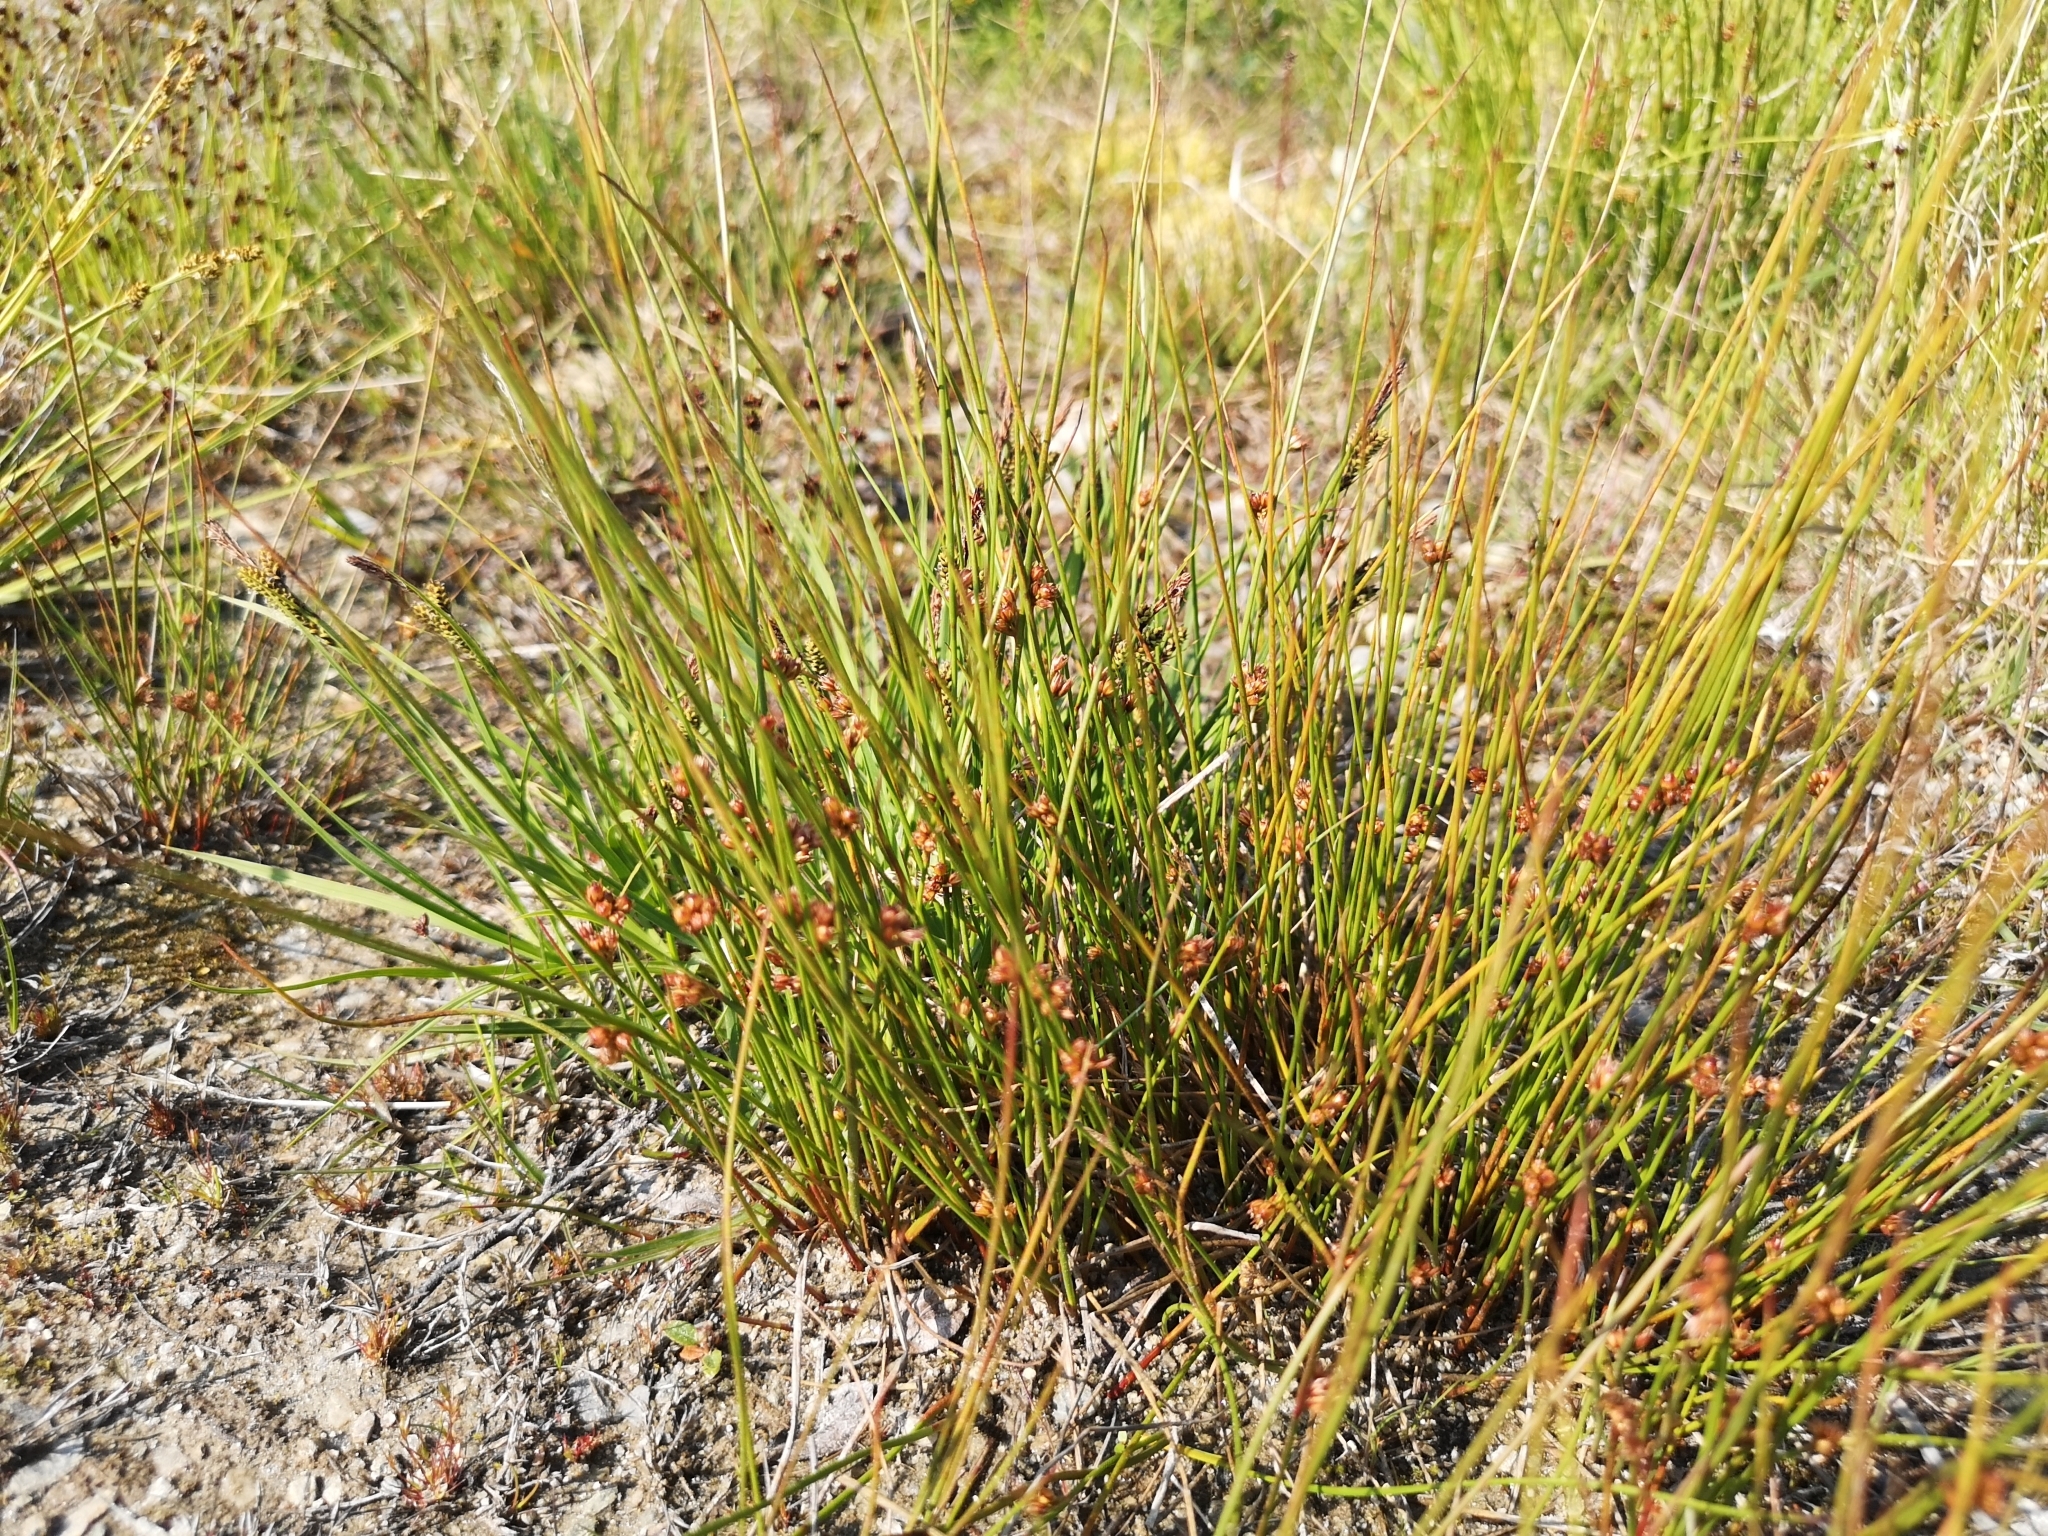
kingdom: Plantae
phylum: Tracheophyta
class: Liliopsida
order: Poales
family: Juncaceae
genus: Juncus
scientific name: Juncus filiformis
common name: Thread rush
